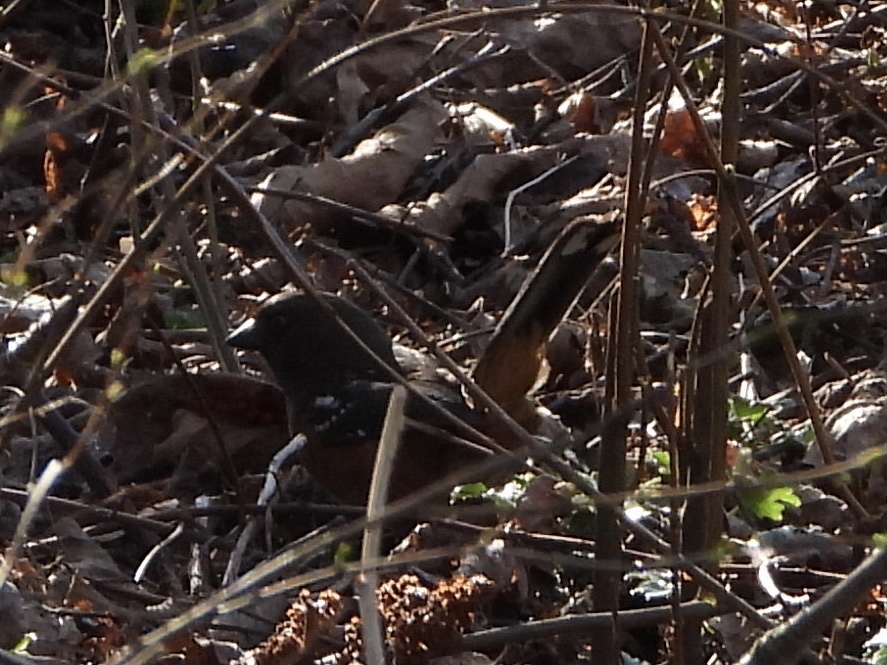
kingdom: Animalia
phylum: Chordata
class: Aves
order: Passeriformes
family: Passerellidae
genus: Pipilo
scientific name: Pipilo maculatus
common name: Spotted towhee
